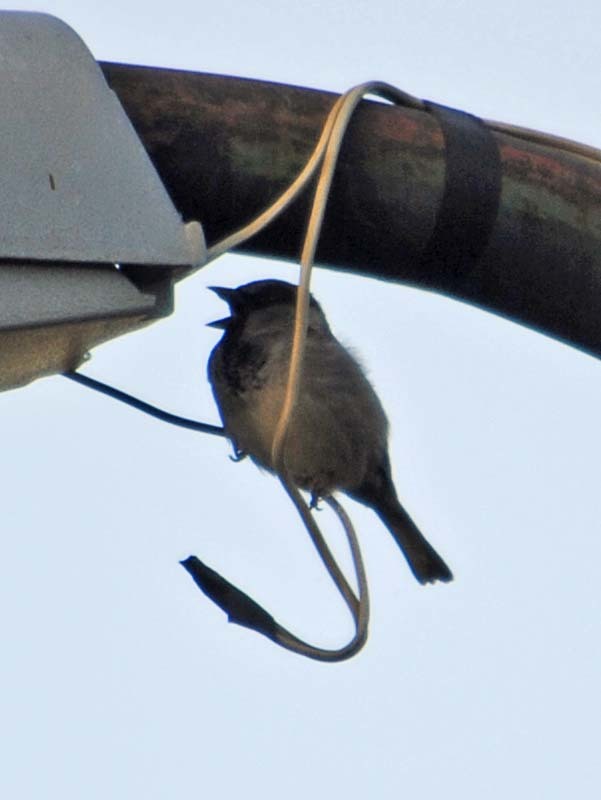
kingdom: Animalia
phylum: Chordata
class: Aves
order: Passeriformes
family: Passeridae
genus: Passer
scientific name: Passer domesticus
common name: House sparrow
